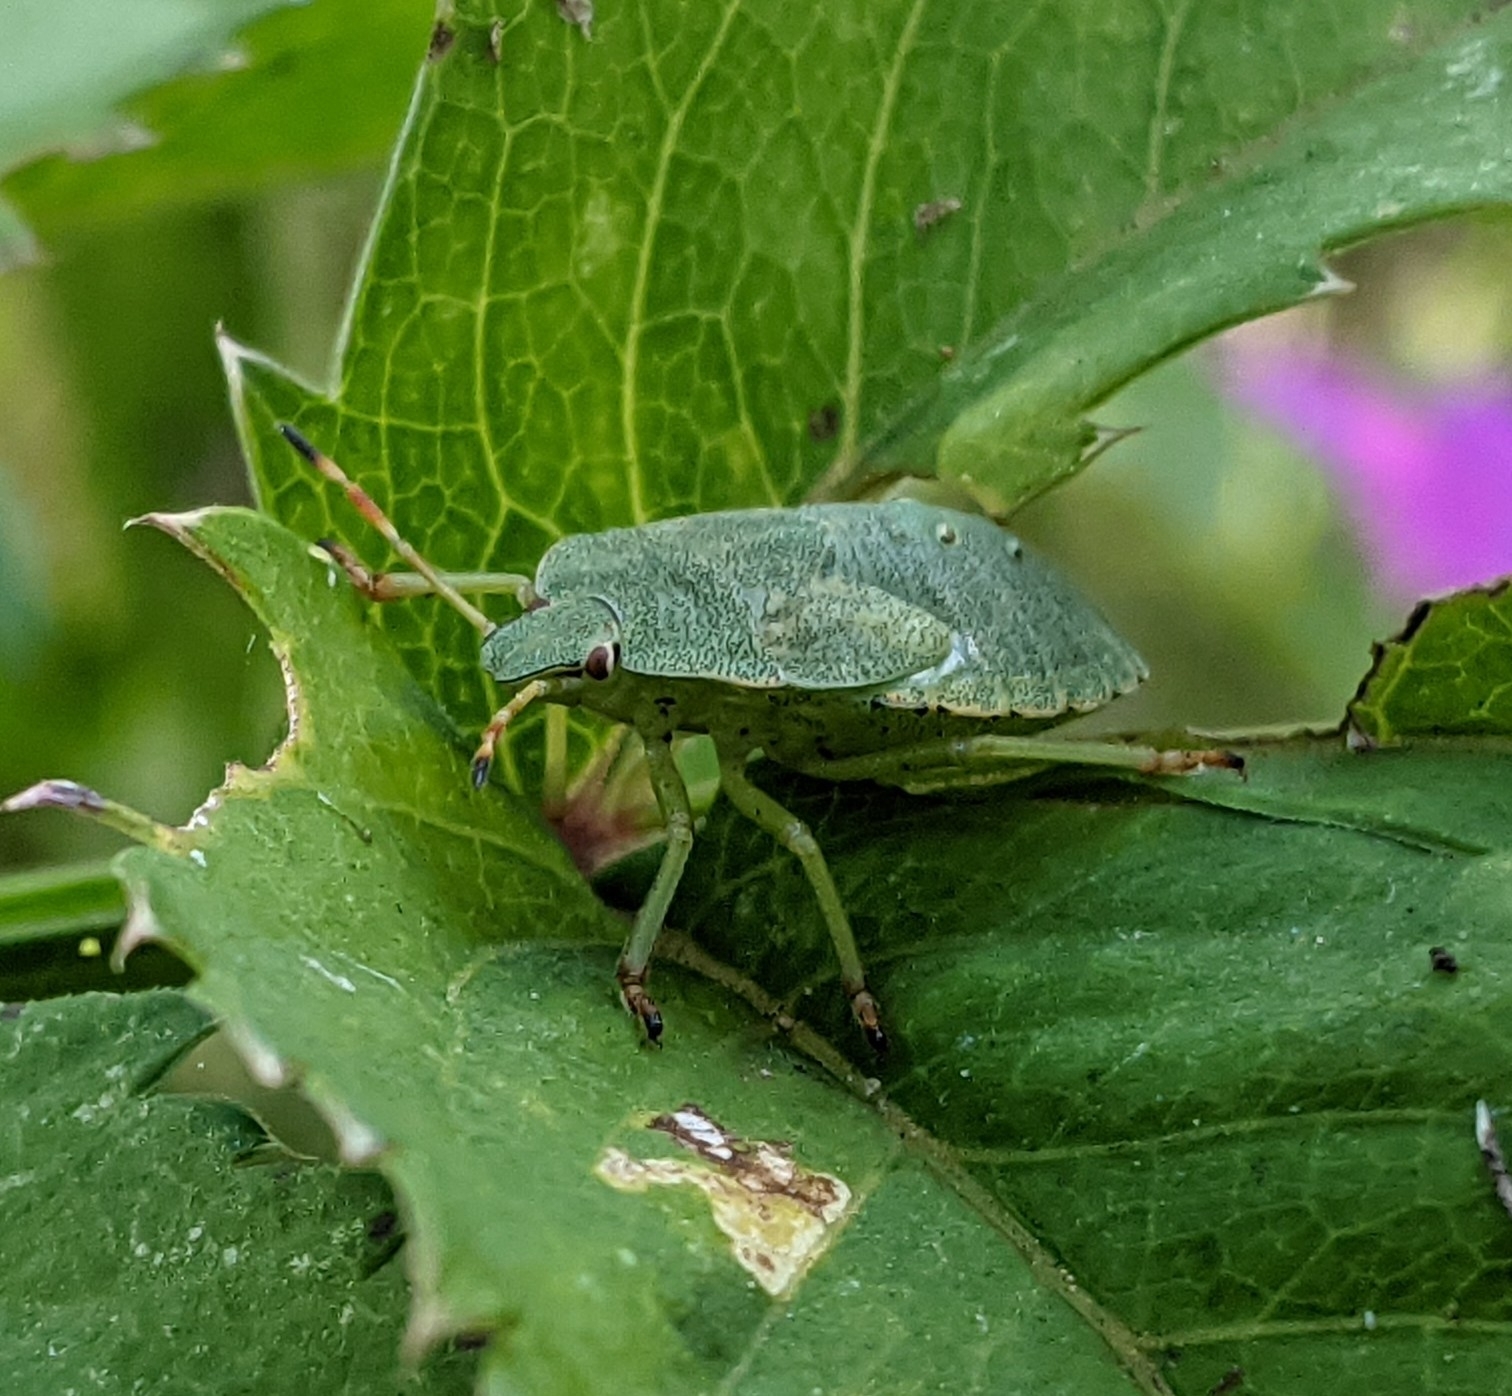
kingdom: Animalia
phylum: Arthropoda
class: Insecta
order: Hemiptera
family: Pentatomidae
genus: Palomena
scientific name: Palomena prasina
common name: Green shieldbug
